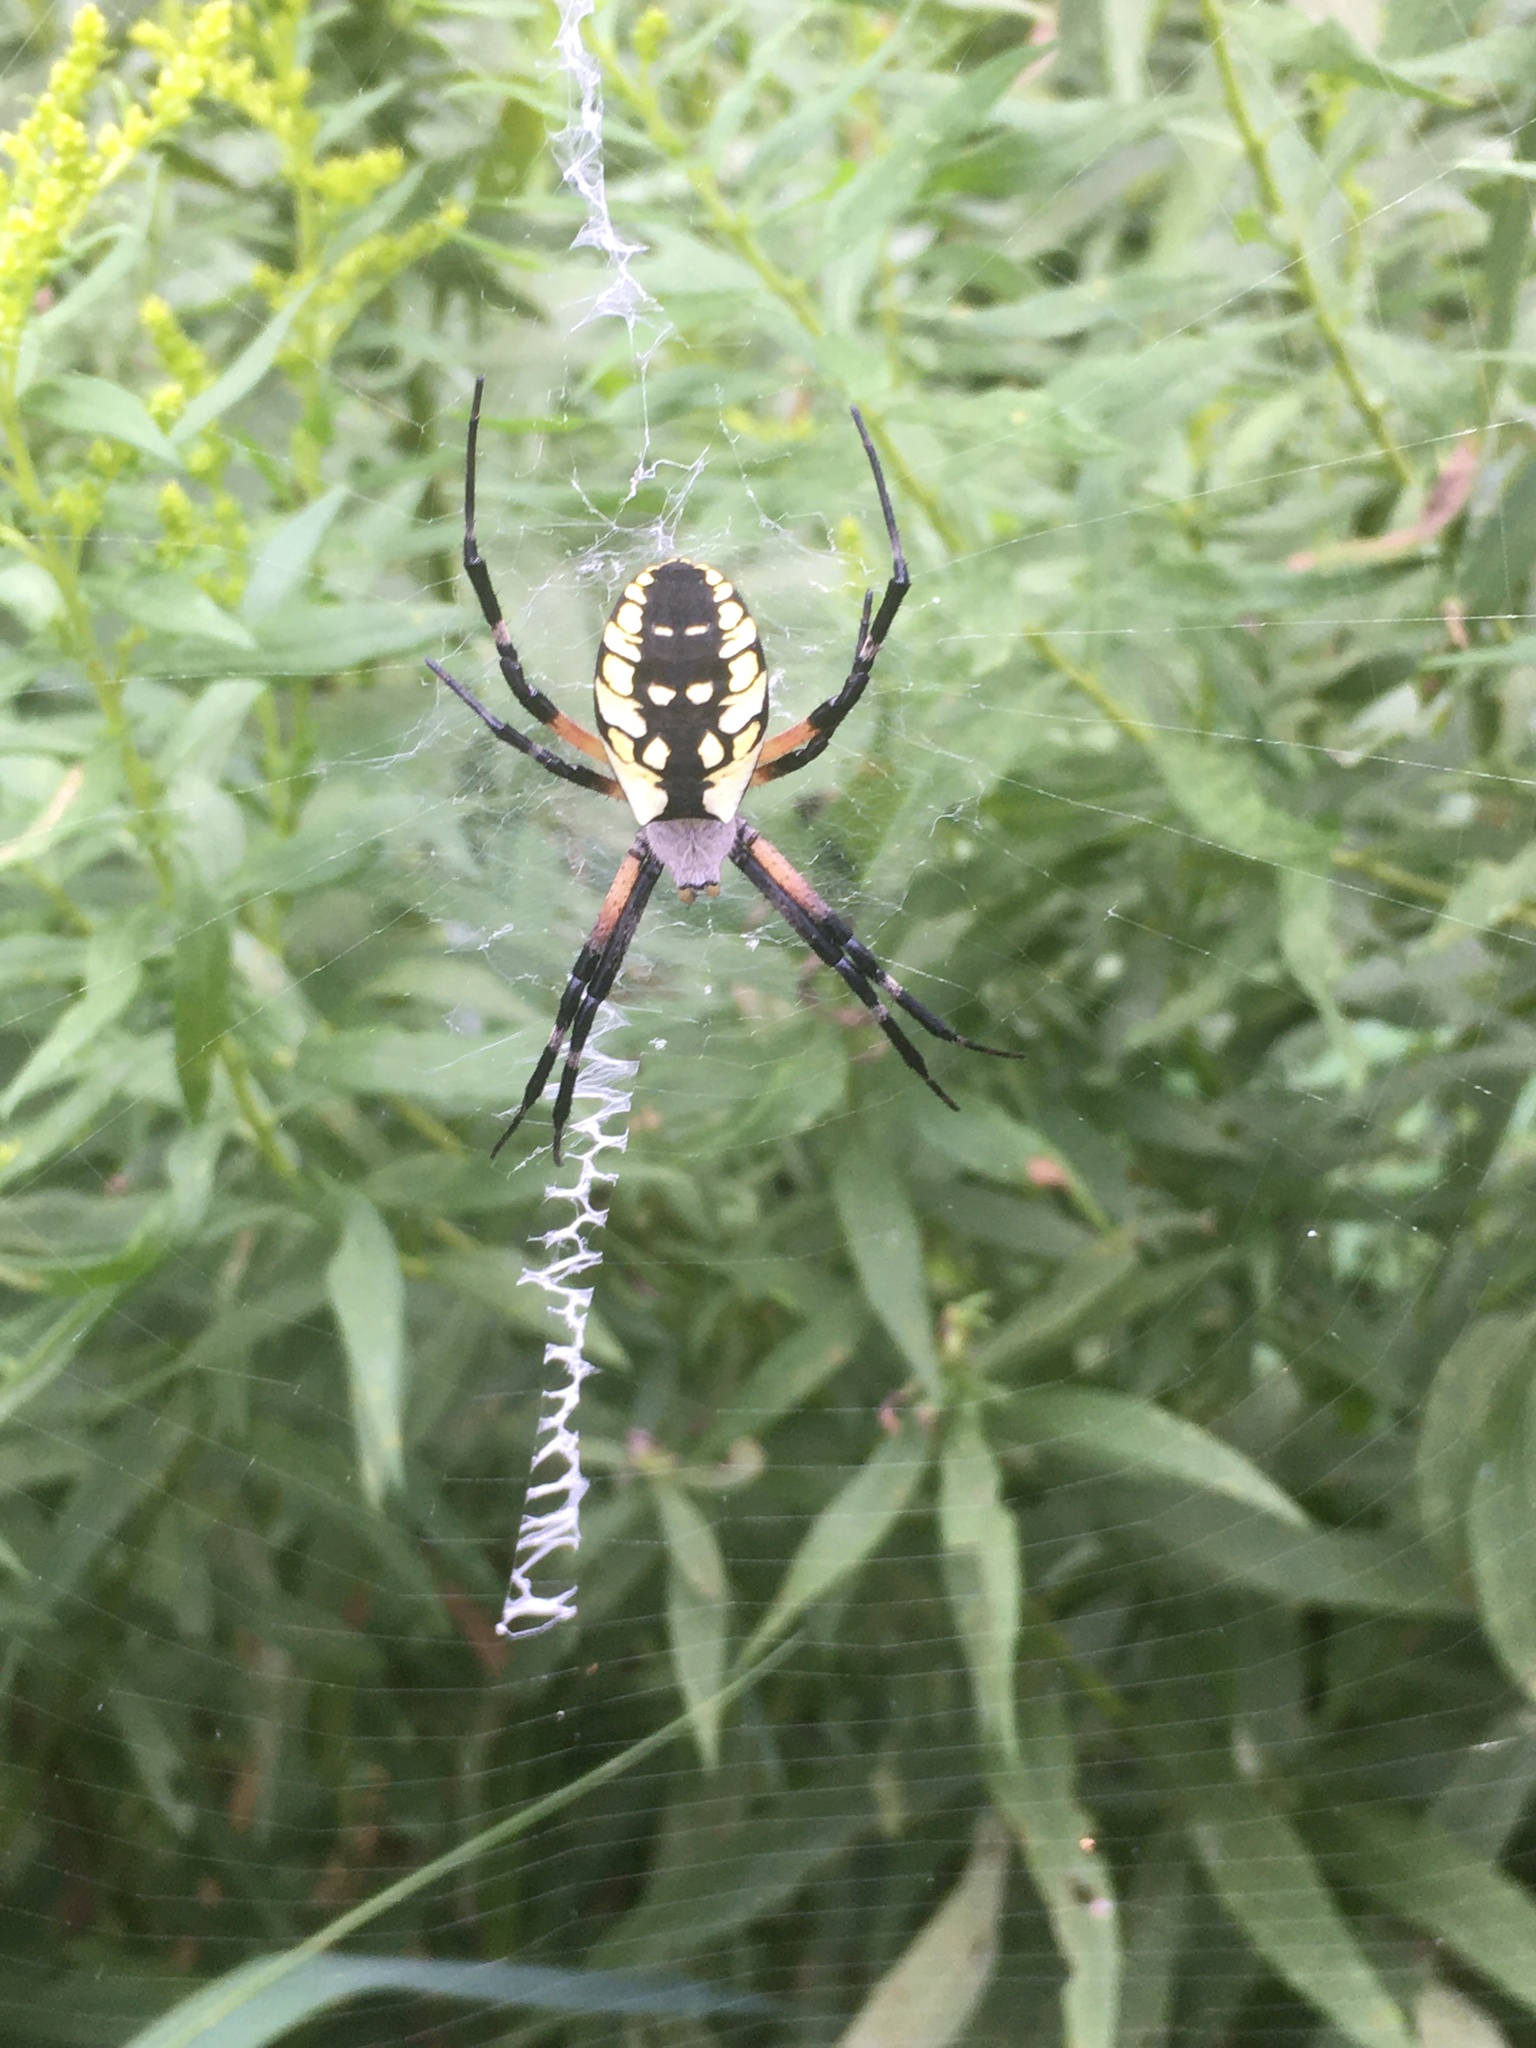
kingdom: Animalia
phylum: Arthropoda
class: Arachnida
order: Araneae
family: Araneidae
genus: Argiope
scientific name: Argiope aurantia
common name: Orb weavers
